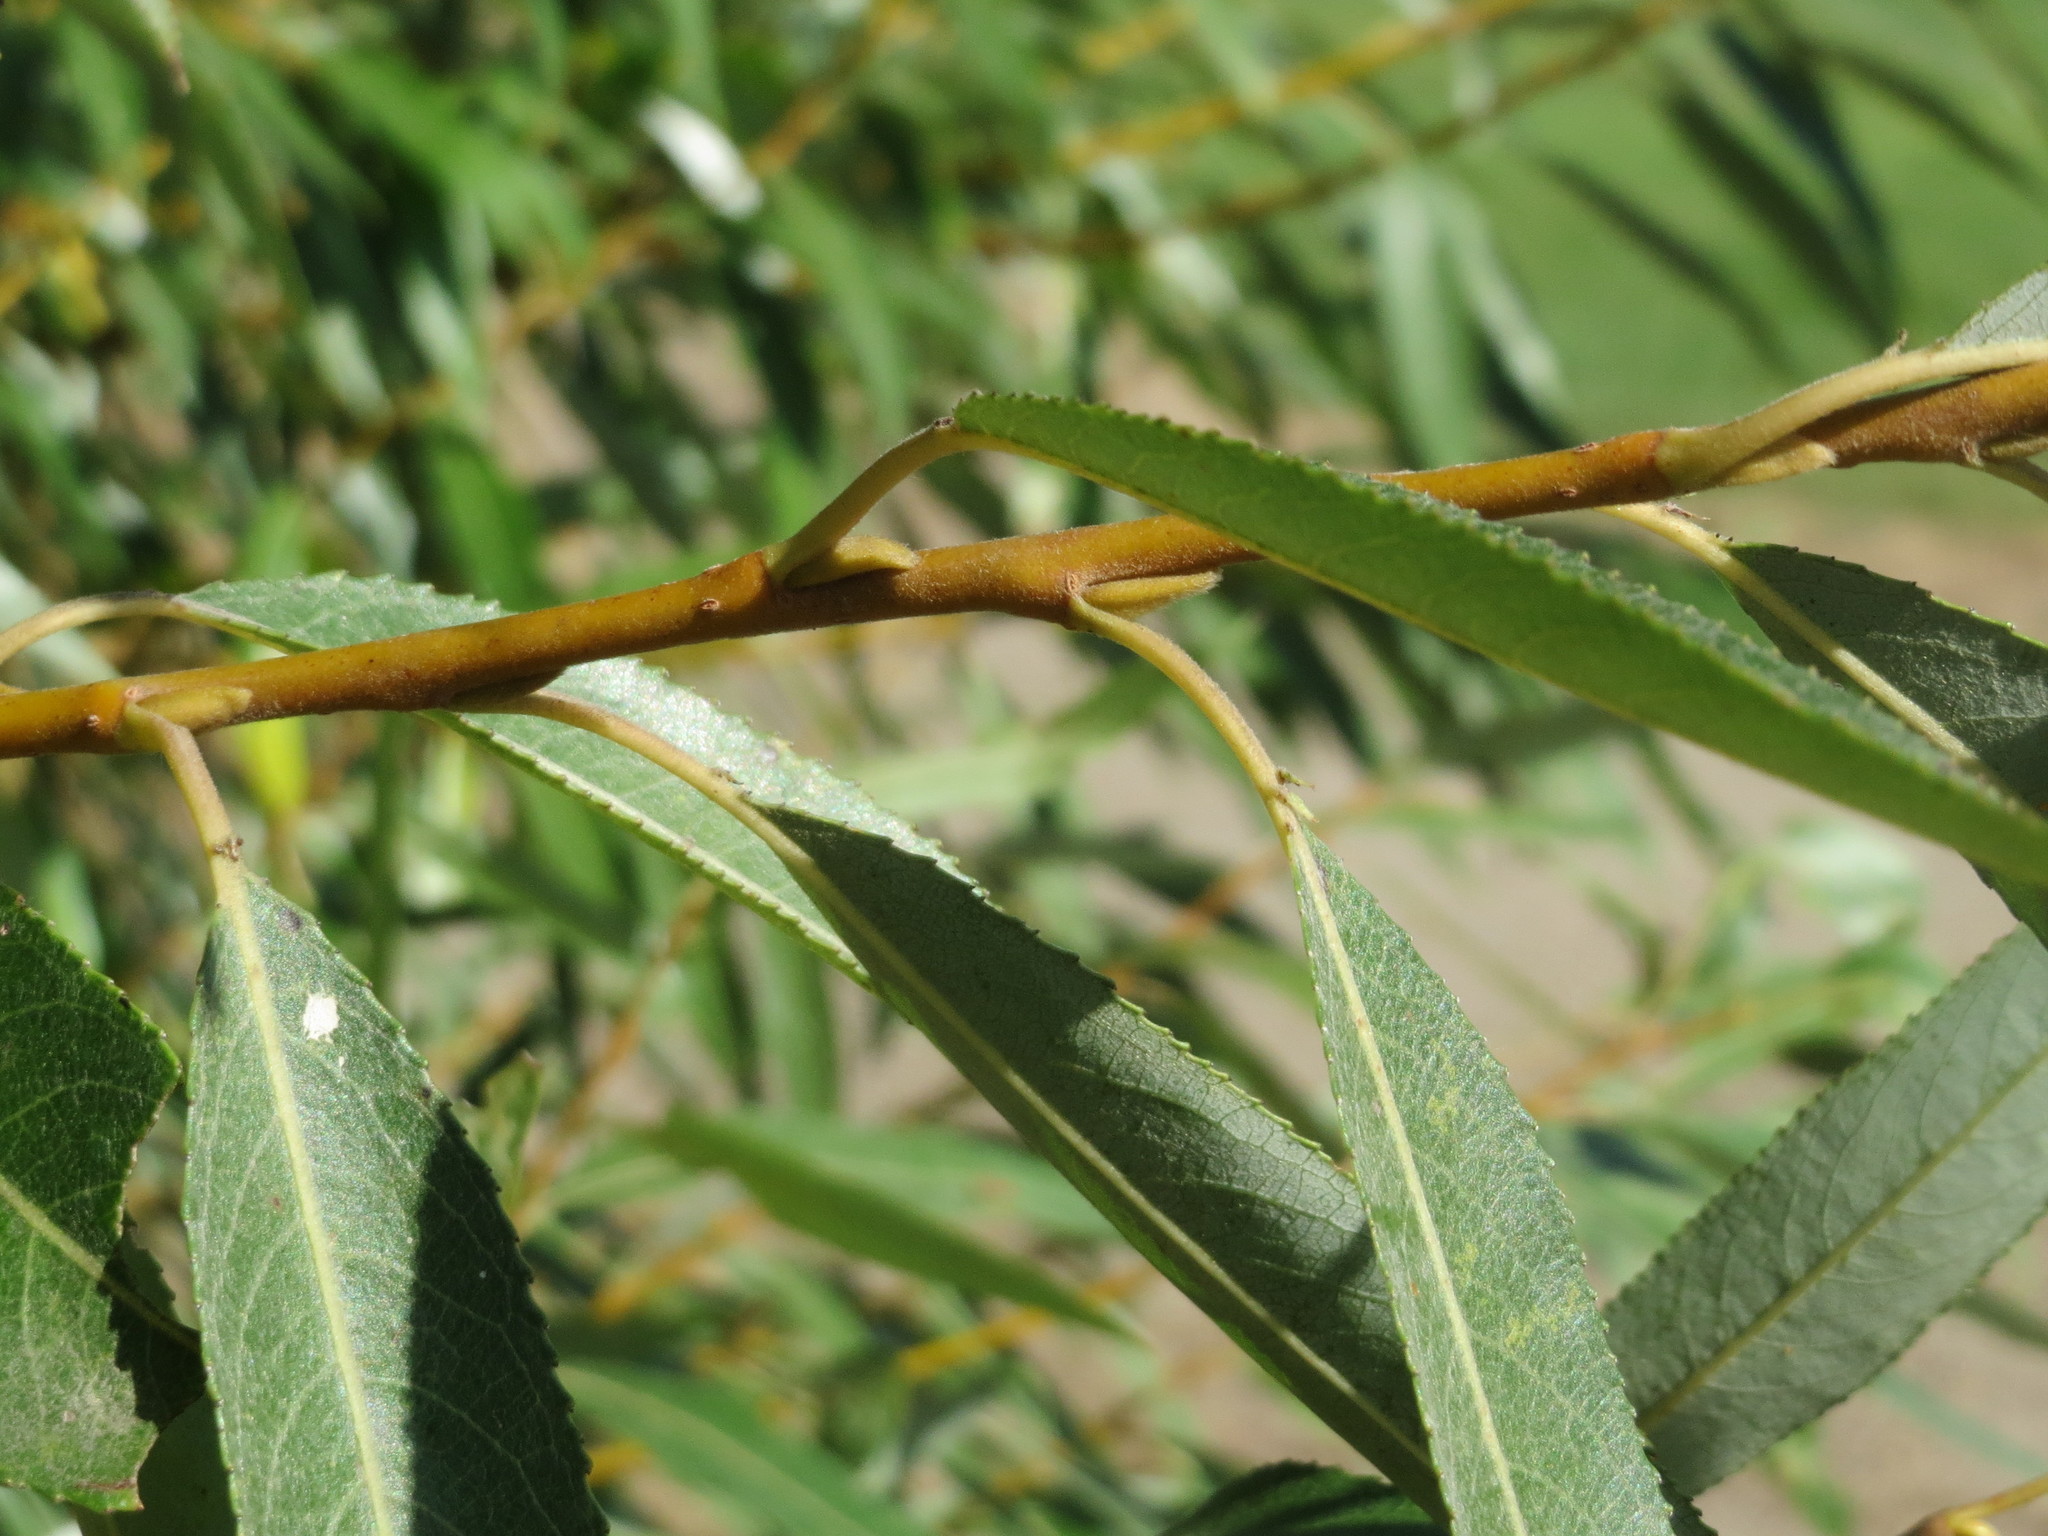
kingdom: Plantae
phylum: Tracheophyta
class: Magnoliopsida
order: Malpighiales
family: Salicaceae
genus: Salix
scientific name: Salix alba
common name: White willow
